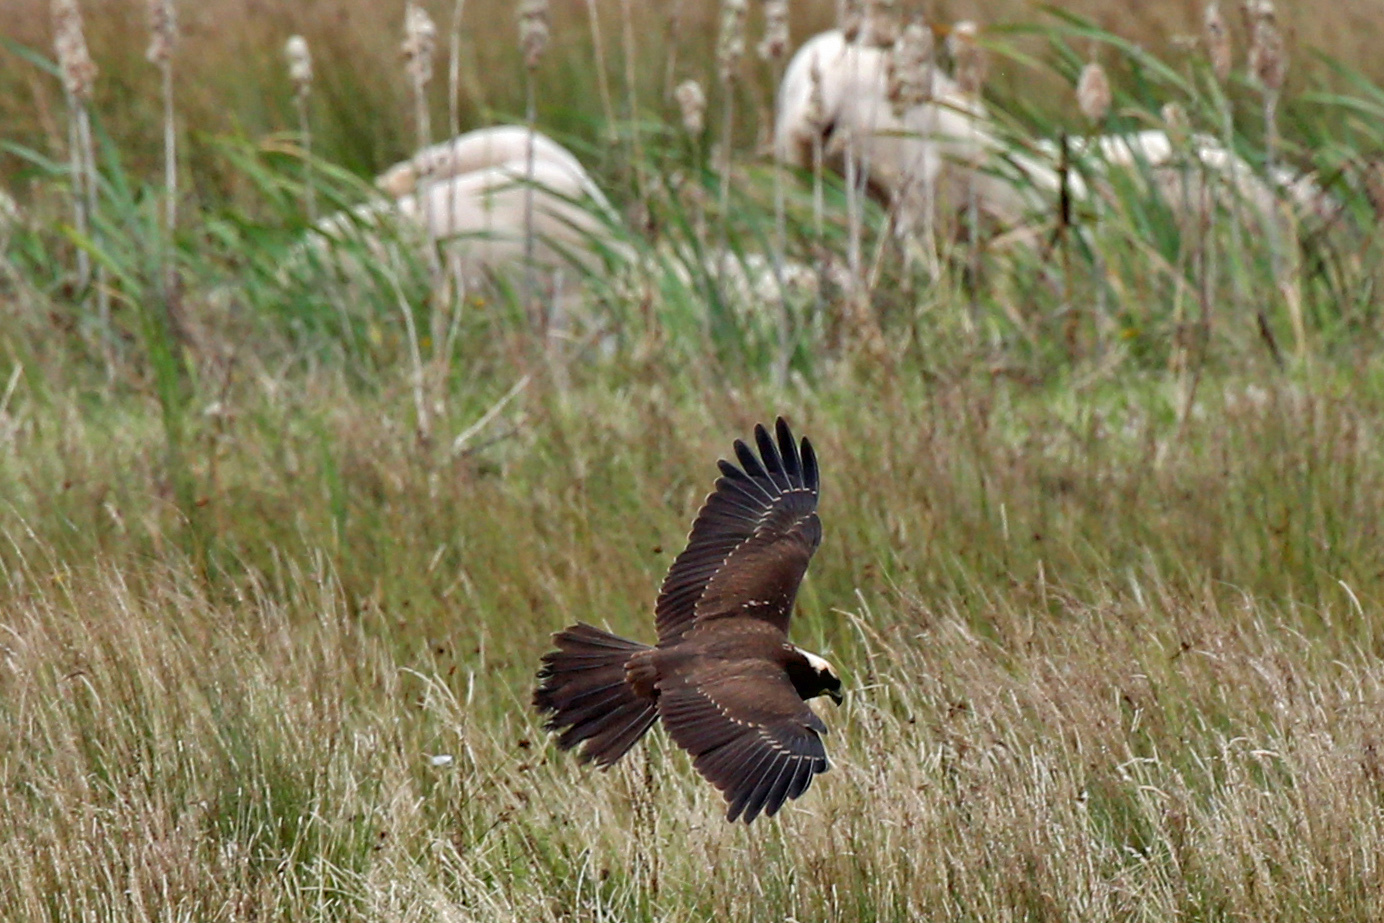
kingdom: Animalia
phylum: Chordata
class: Aves
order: Accipitriformes
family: Accipitridae
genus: Circus
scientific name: Circus aeruginosus
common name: Western marsh harrier
